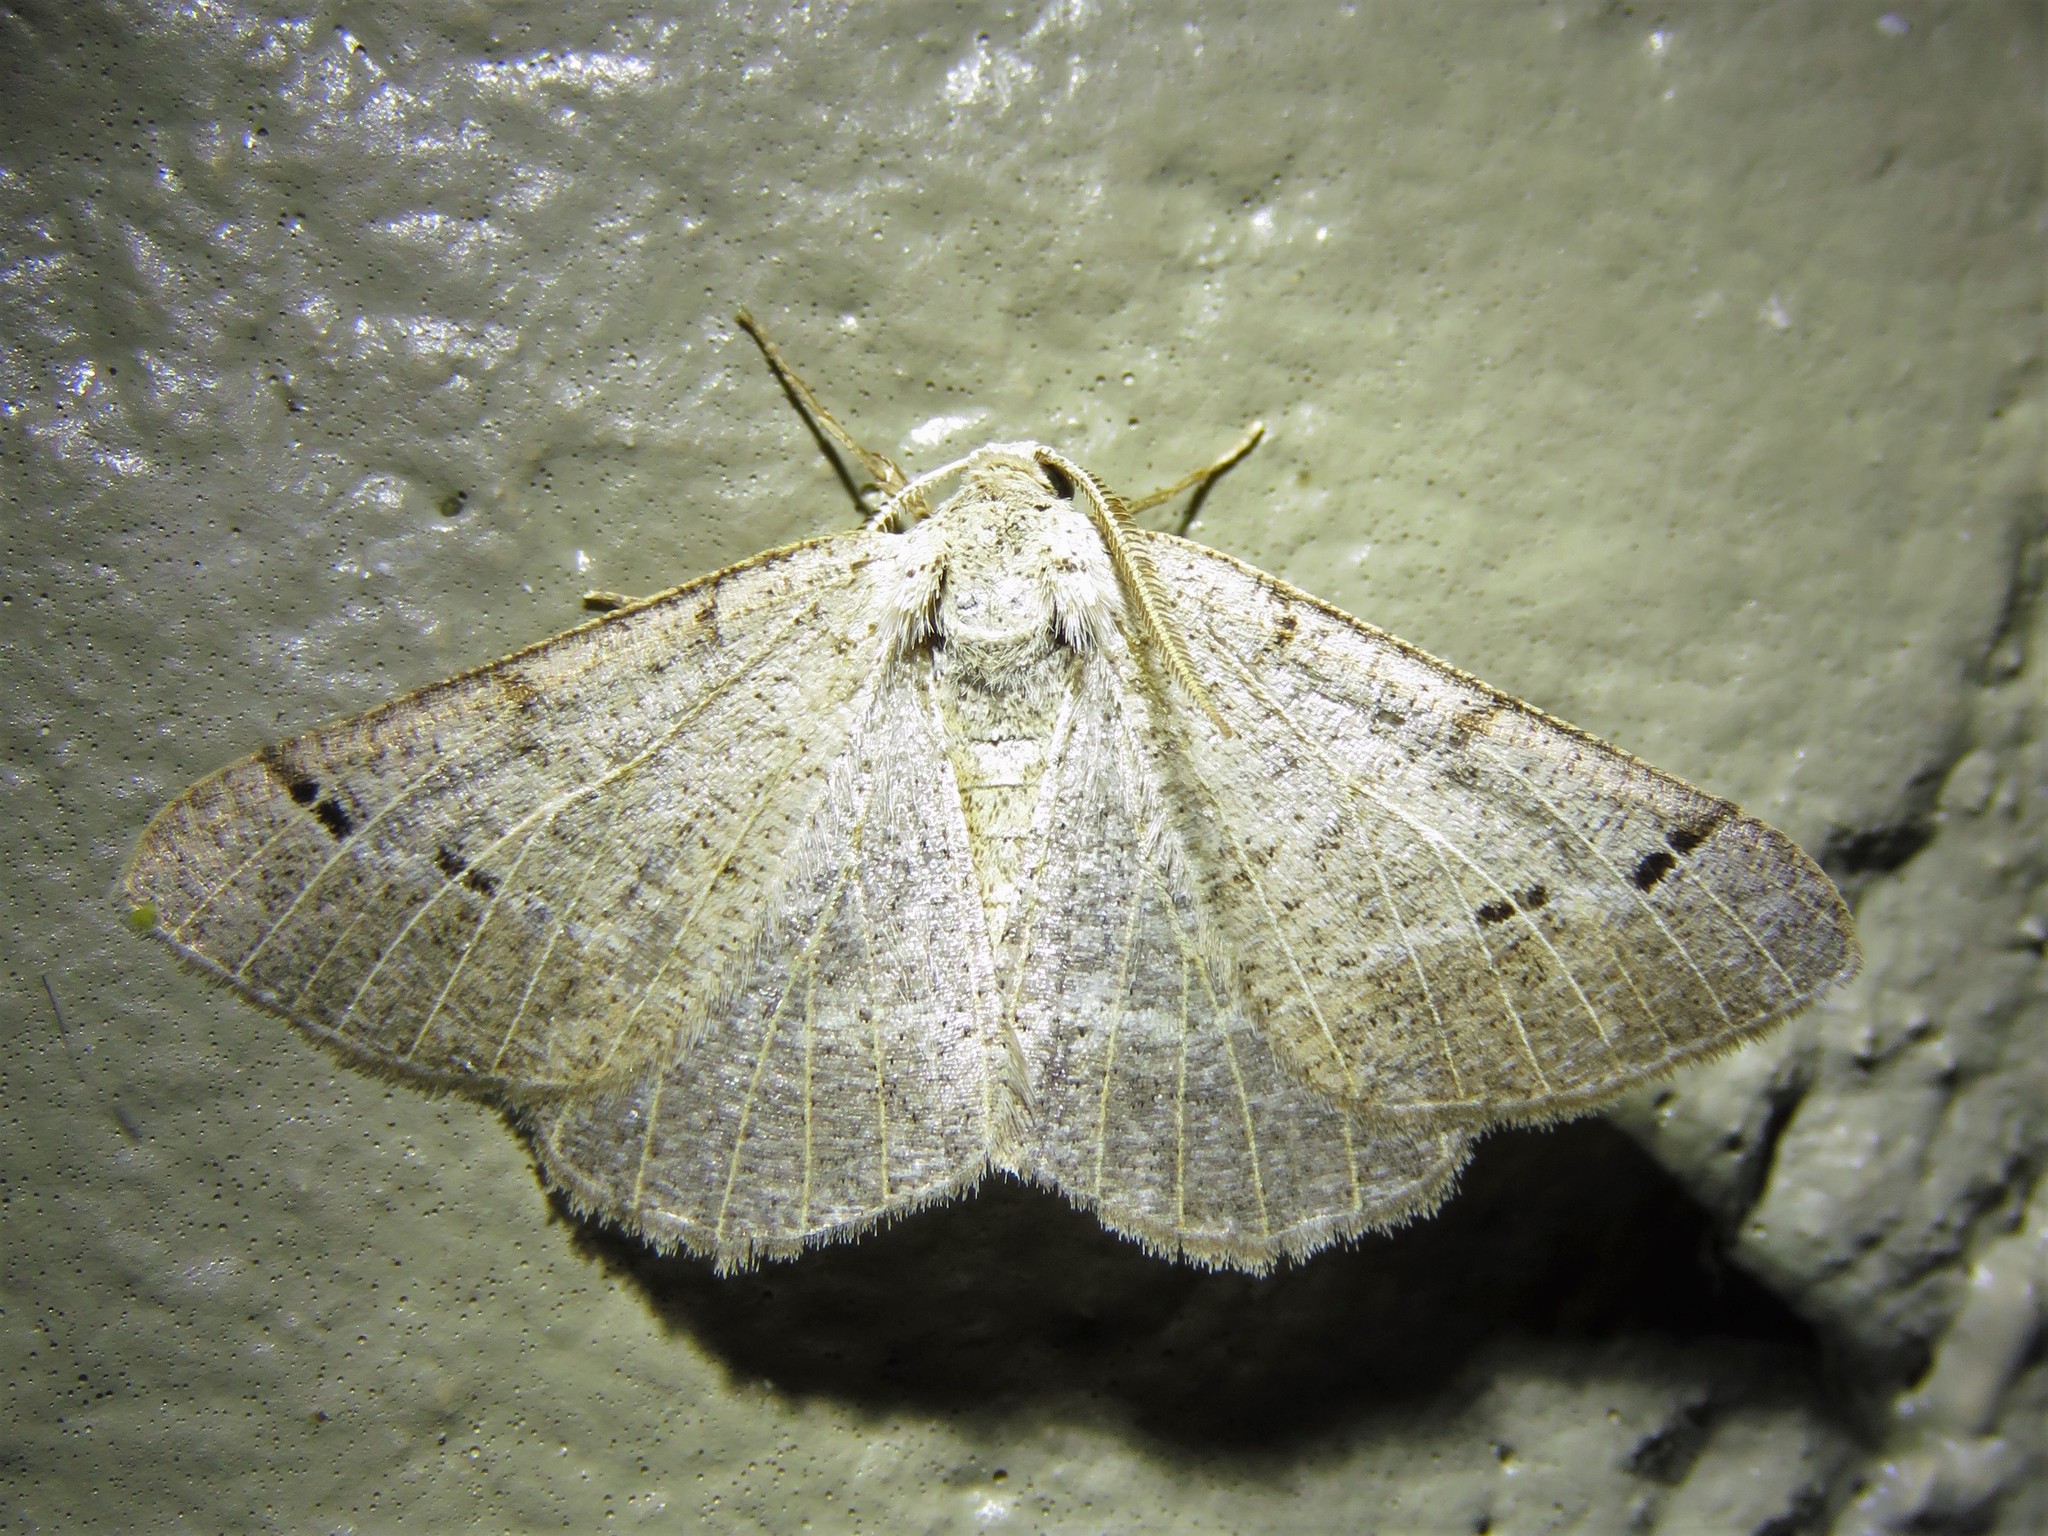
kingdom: Animalia
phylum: Arthropoda
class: Insecta
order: Lepidoptera
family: Geometridae
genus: Isturgia
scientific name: Isturgia dislocaria
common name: Pale-viened enconista
